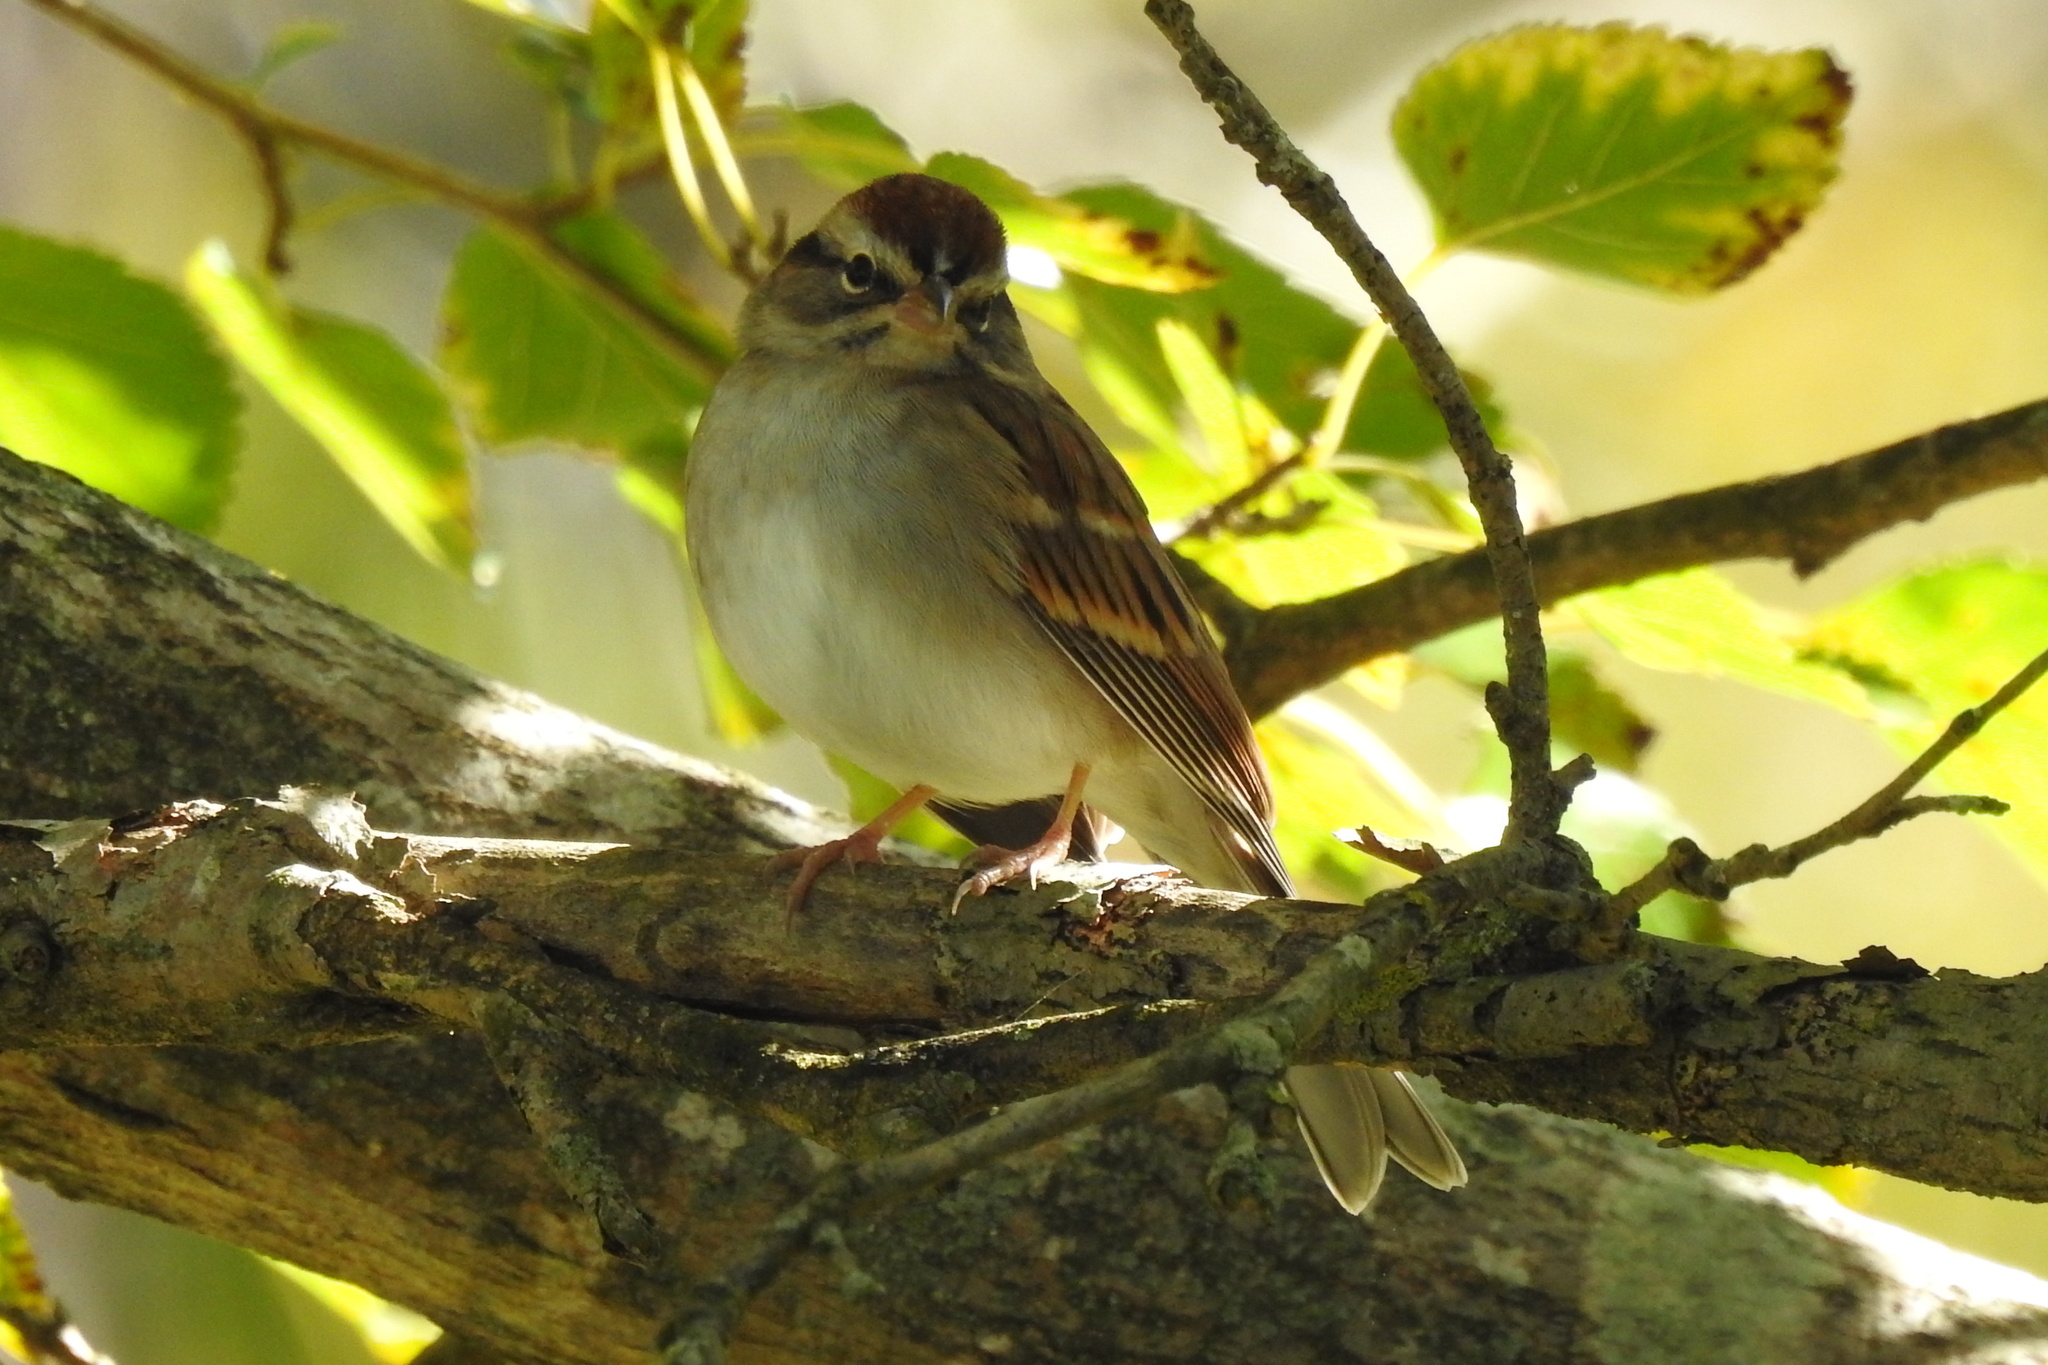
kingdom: Animalia
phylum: Chordata
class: Aves
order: Passeriformes
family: Passerellidae
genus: Spizella
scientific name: Spizella passerina
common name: Chipping sparrow
